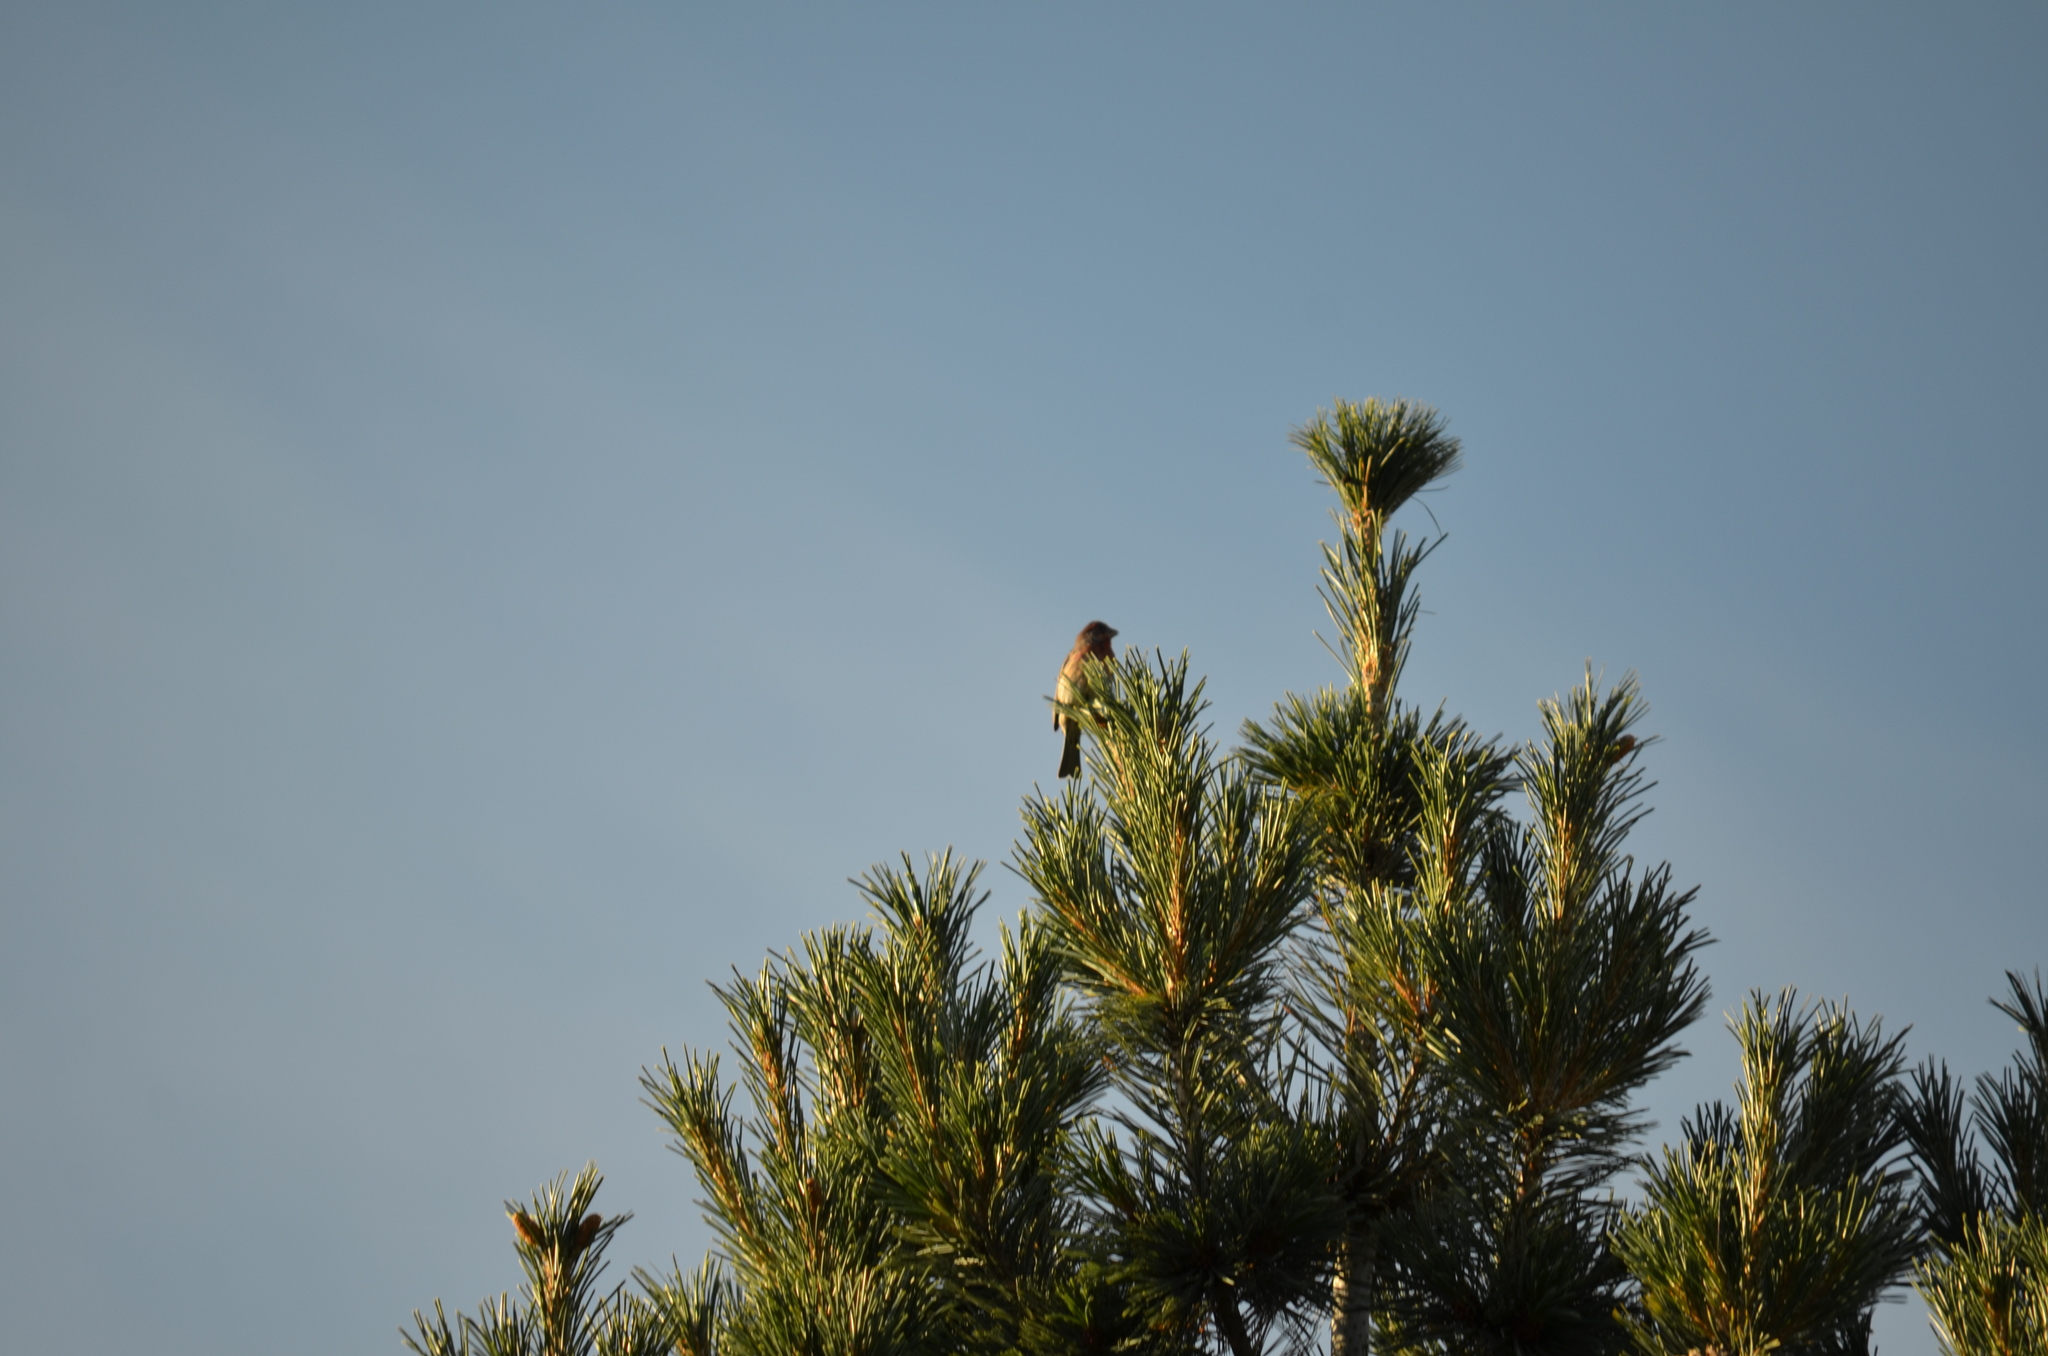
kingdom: Animalia
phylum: Chordata
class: Aves
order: Passeriformes
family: Fringillidae
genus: Haemorhous
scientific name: Haemorhous mexicanus
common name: House finch
